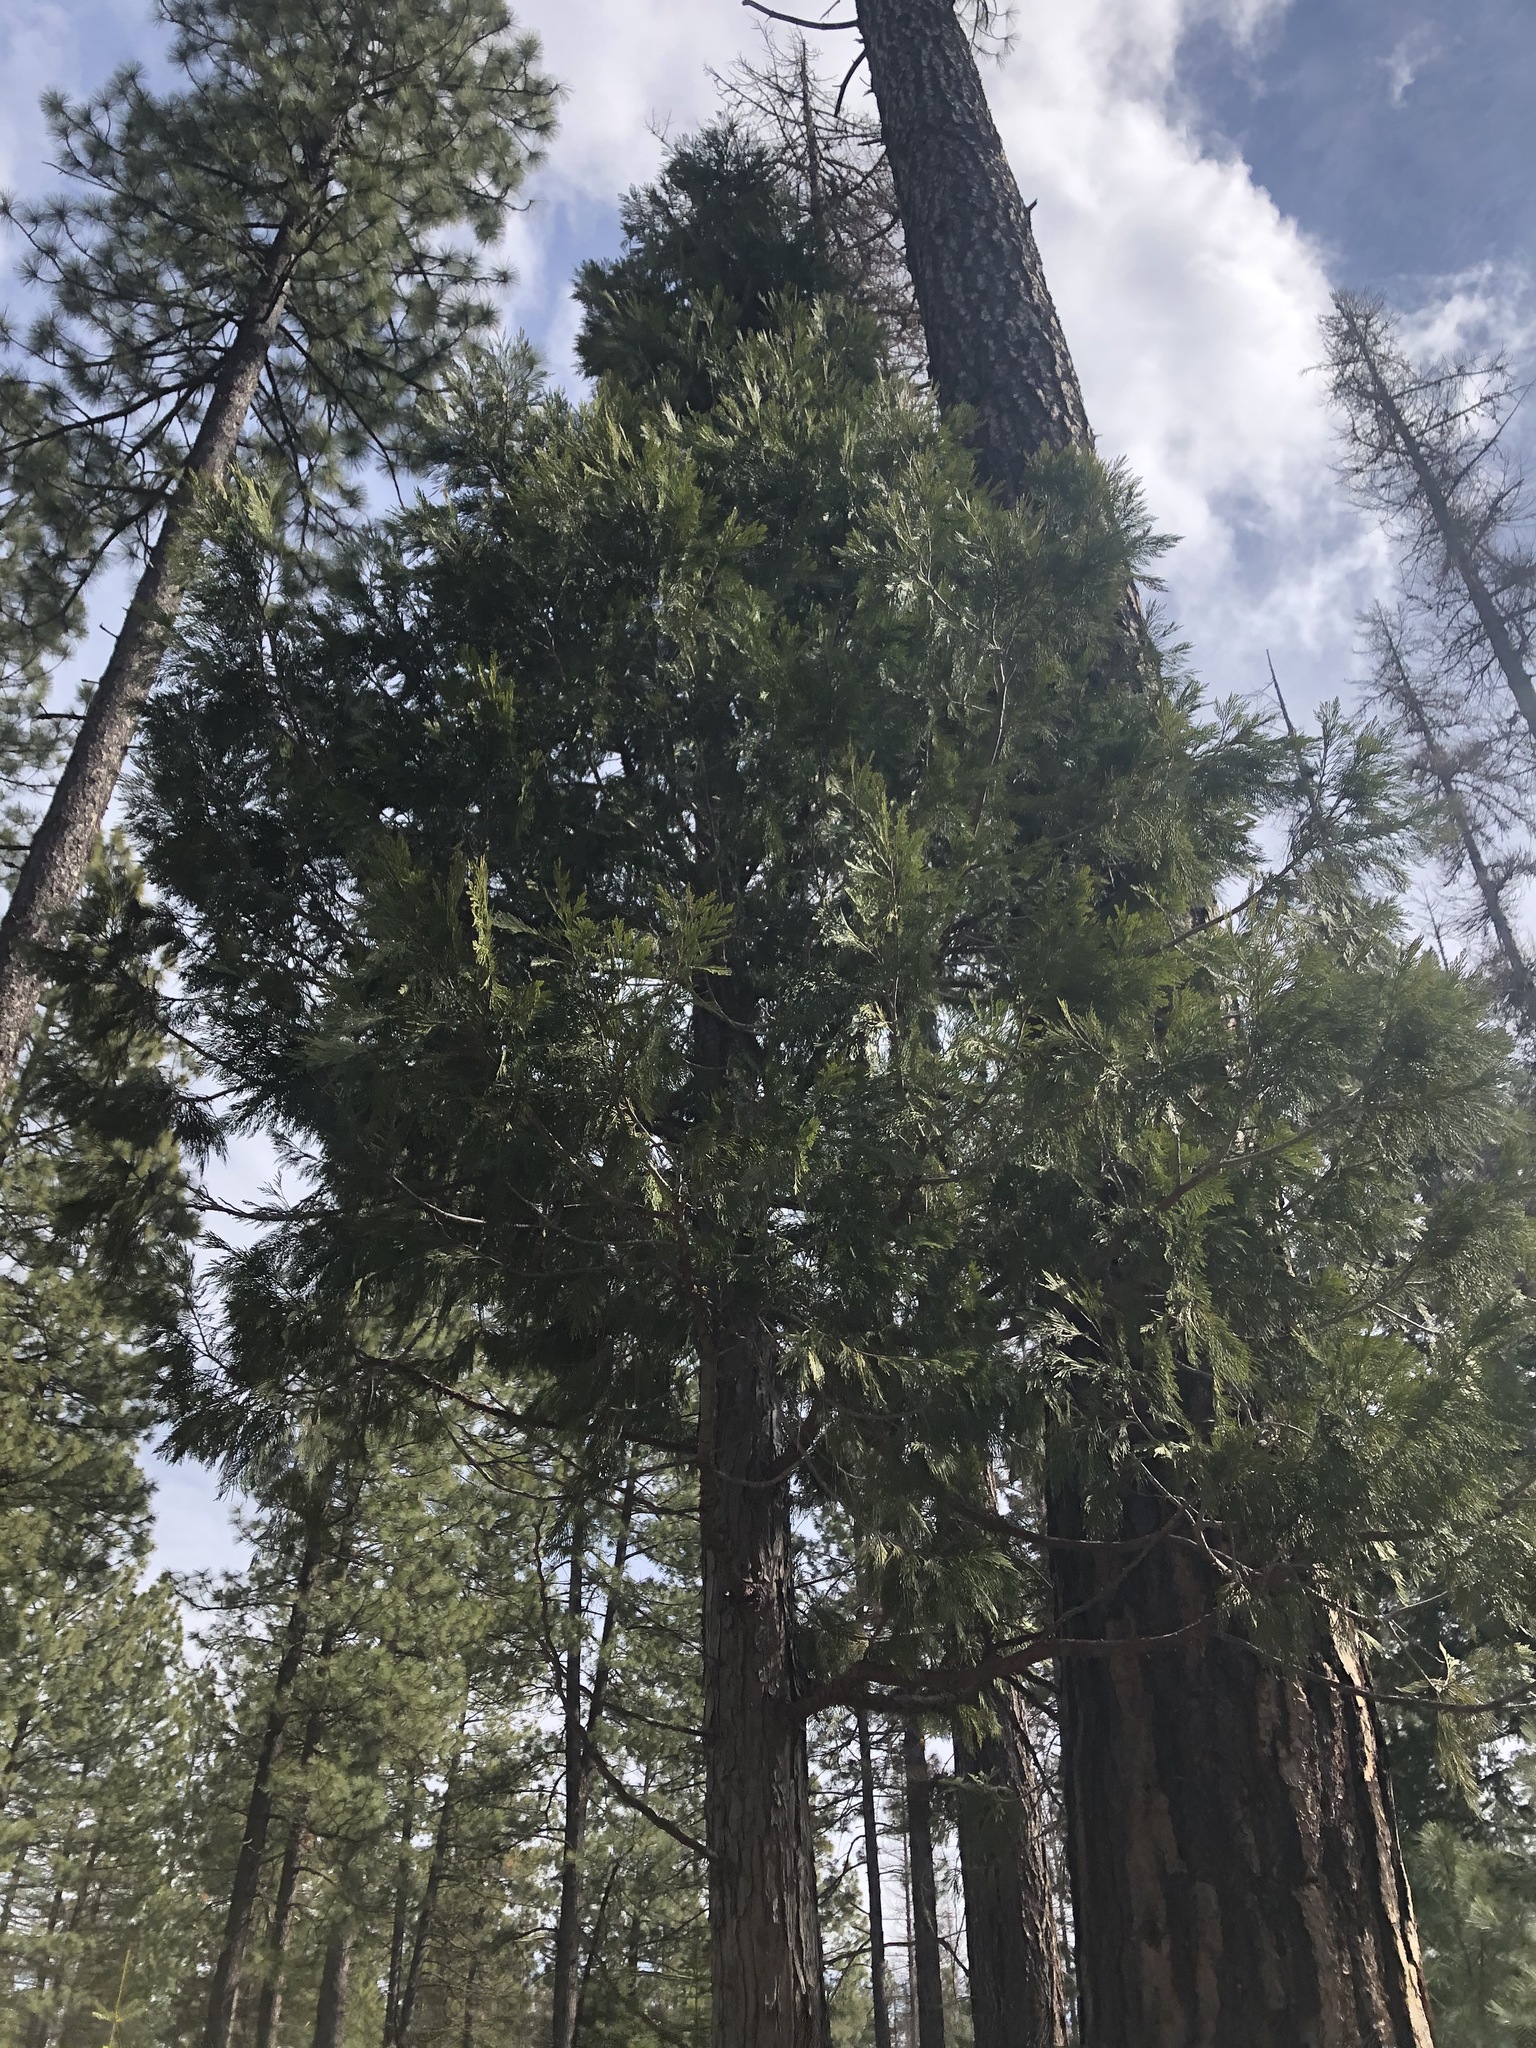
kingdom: Plantae
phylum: Tracheophyta
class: Pinopsida
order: Pinales
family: Cupressaceae
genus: Calocedrus
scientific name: Calocedrus decurrens
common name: Californian incense-cedar
